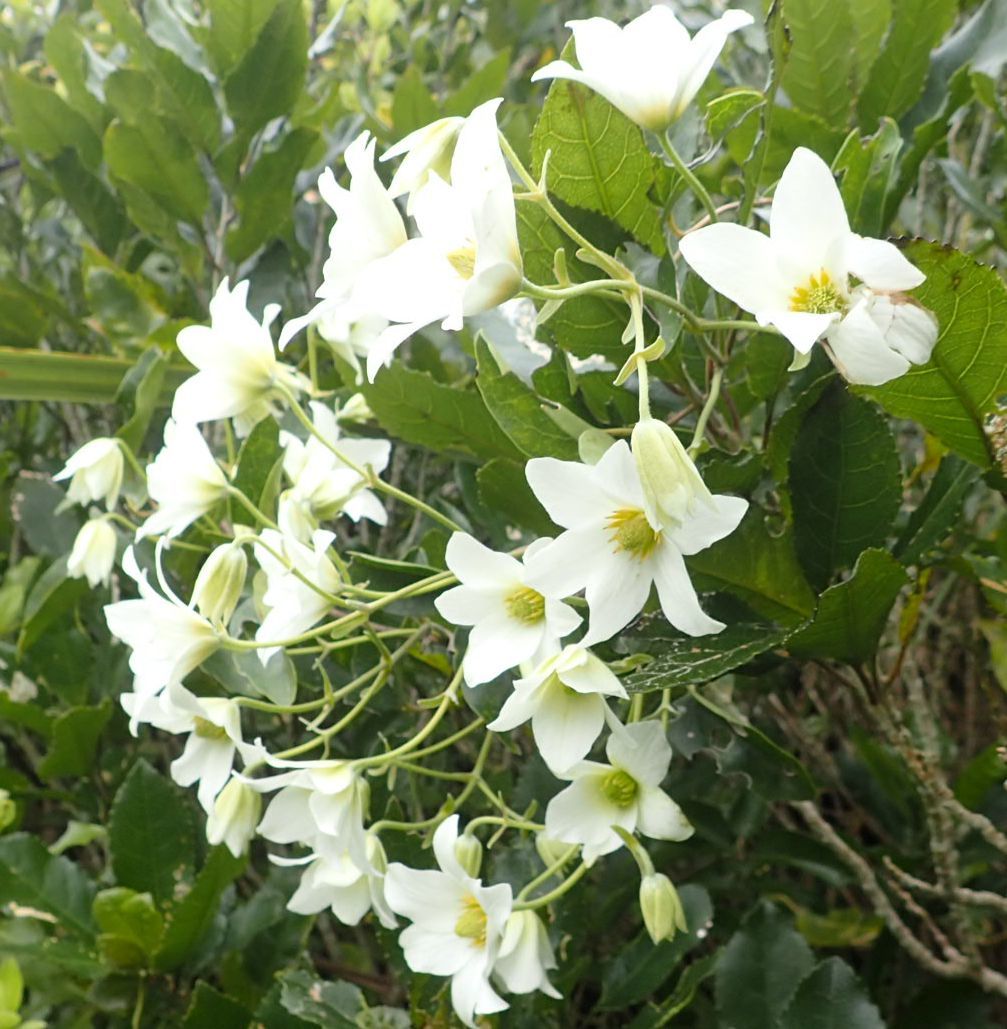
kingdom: Plantae
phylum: Tracheophyta
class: Magnoliopsida
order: Ranunculales
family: Ranunculaceae
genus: Clematis
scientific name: Clematis paniculata
